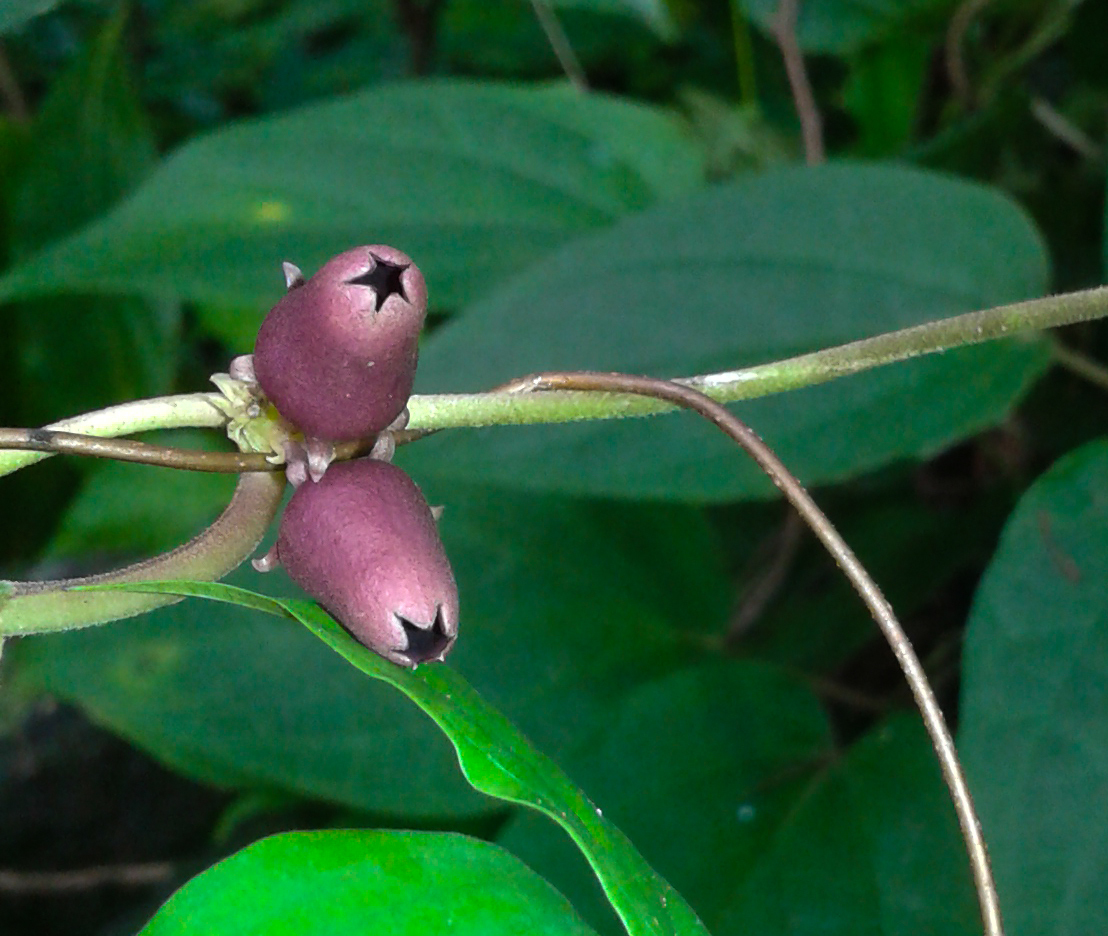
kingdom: Plantae
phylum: Tracheophyta
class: Magnoliopsida
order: Gentianales
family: Apocynaceae
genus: Heterostemma
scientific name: Heterostemma deccanense
